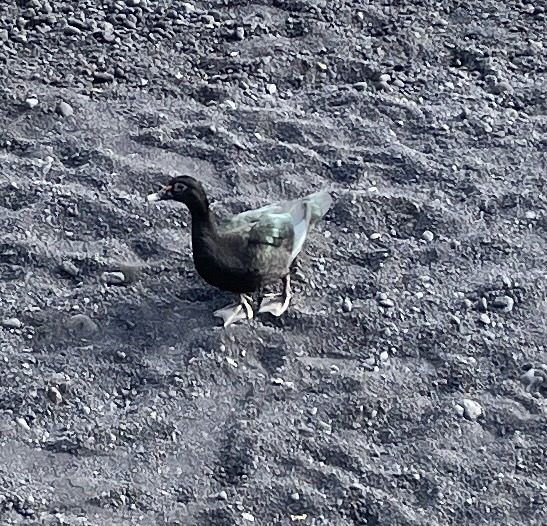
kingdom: Animalia
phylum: Chordata
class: Aves
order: Anseriformes
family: Anatidae
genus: Cairina
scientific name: Cairina moschata
